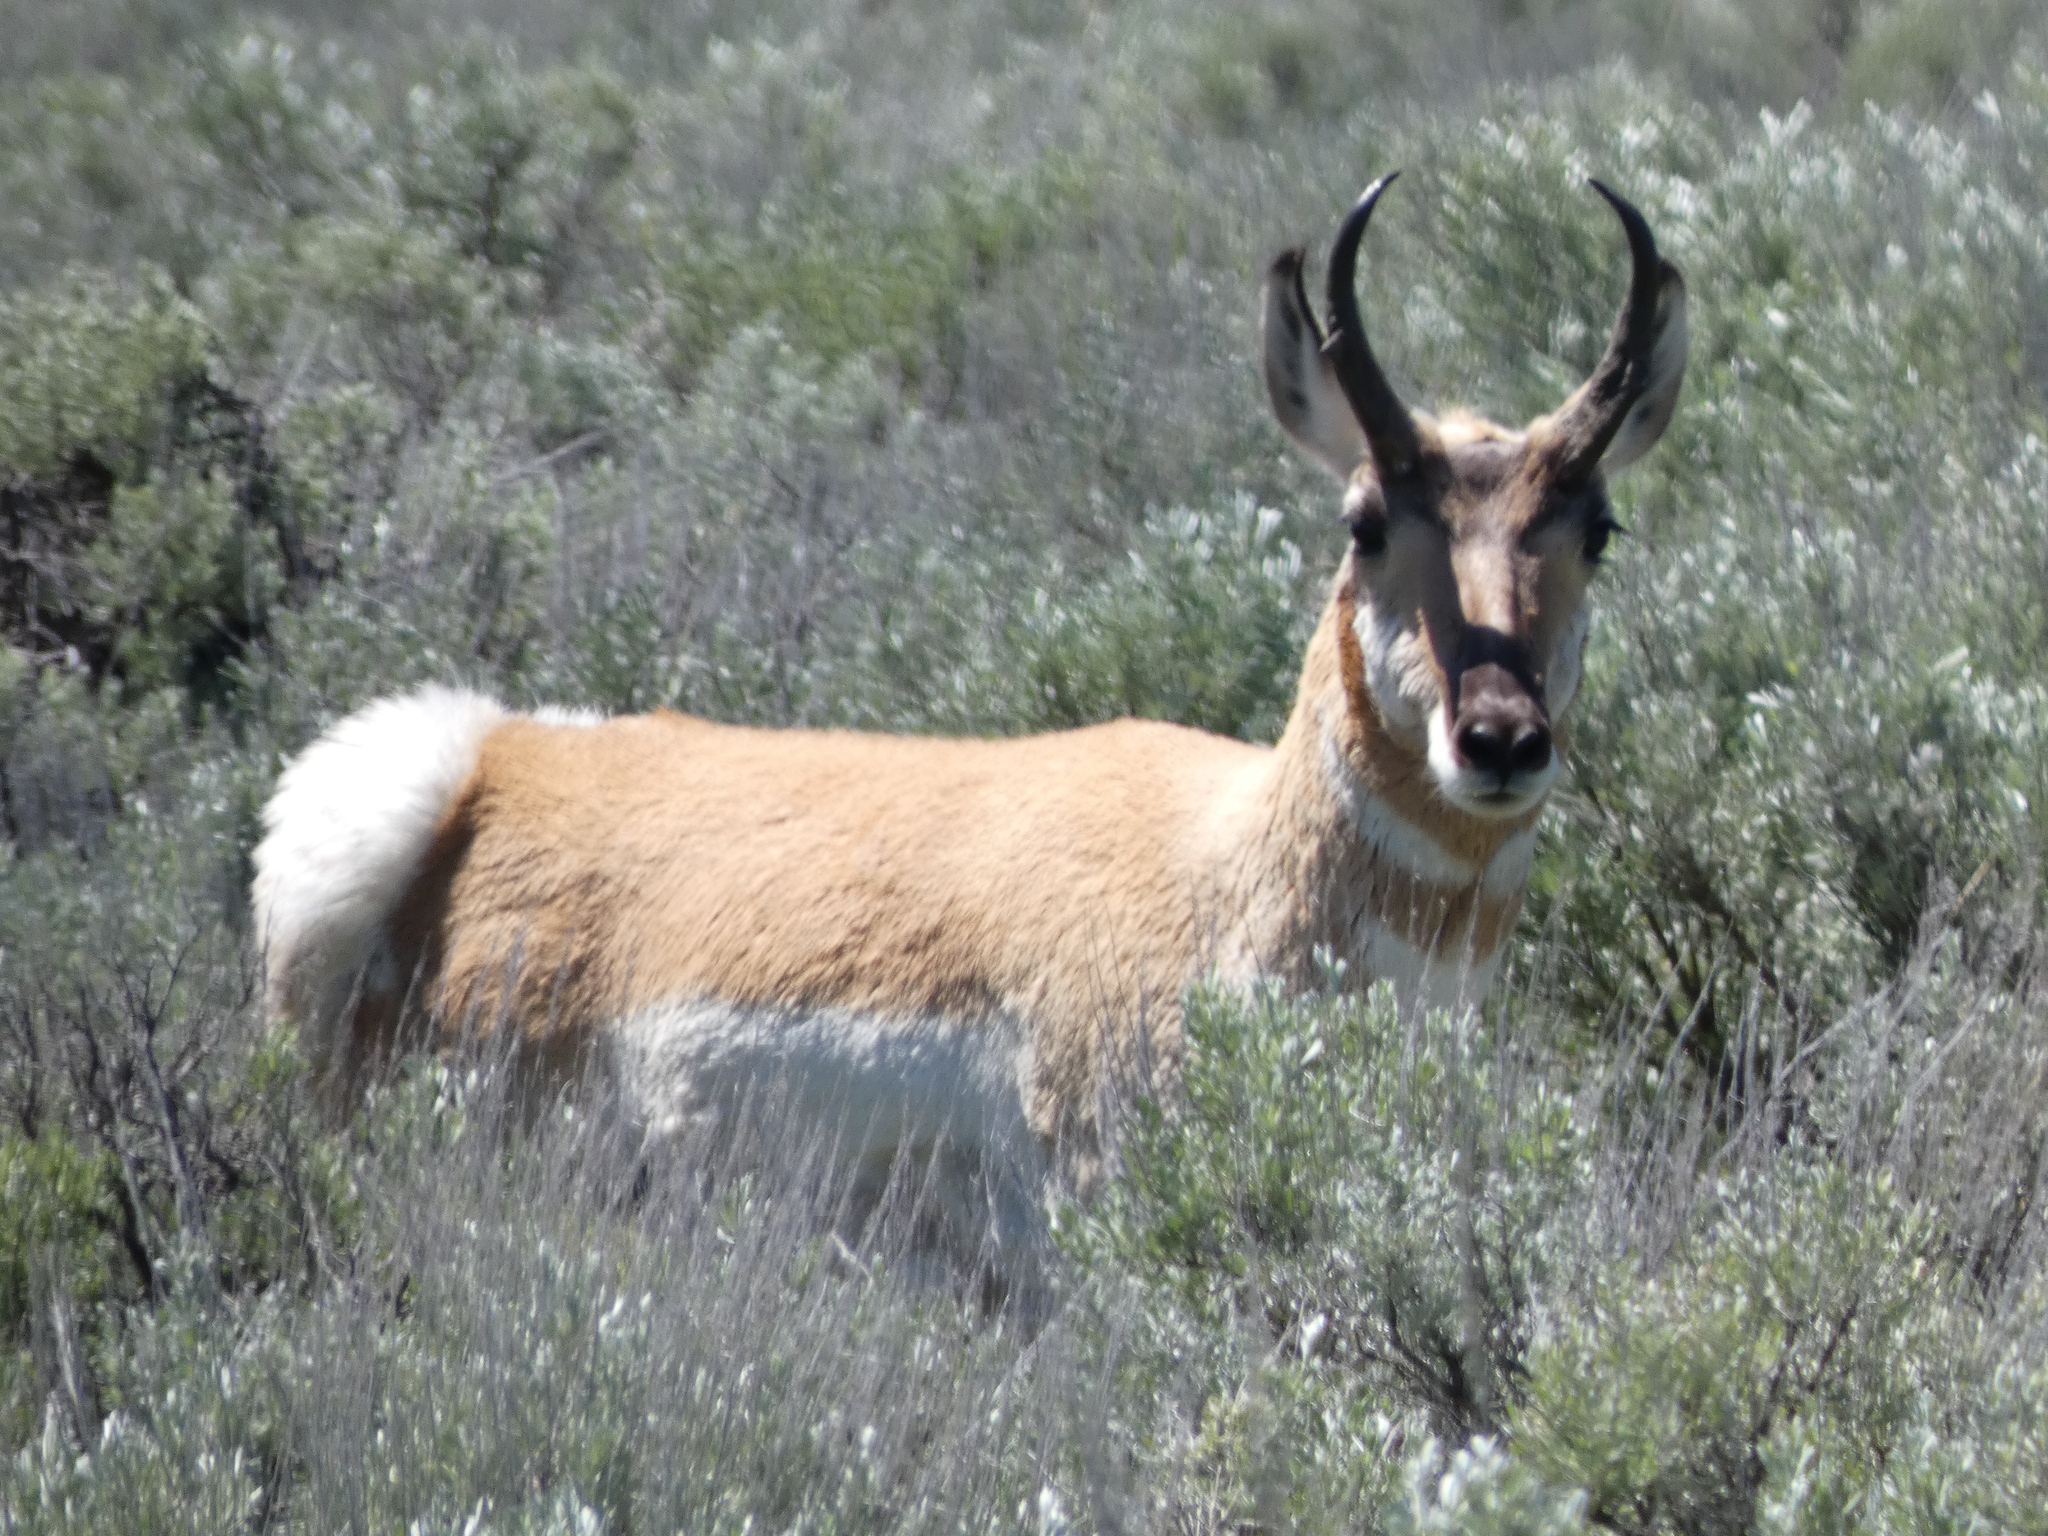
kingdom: Animalia
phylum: Chordata
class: Mammalia
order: Artiodactyla
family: Antilocapridae
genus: Antilocapra
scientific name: Antilocapra americana
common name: Pronghorn
